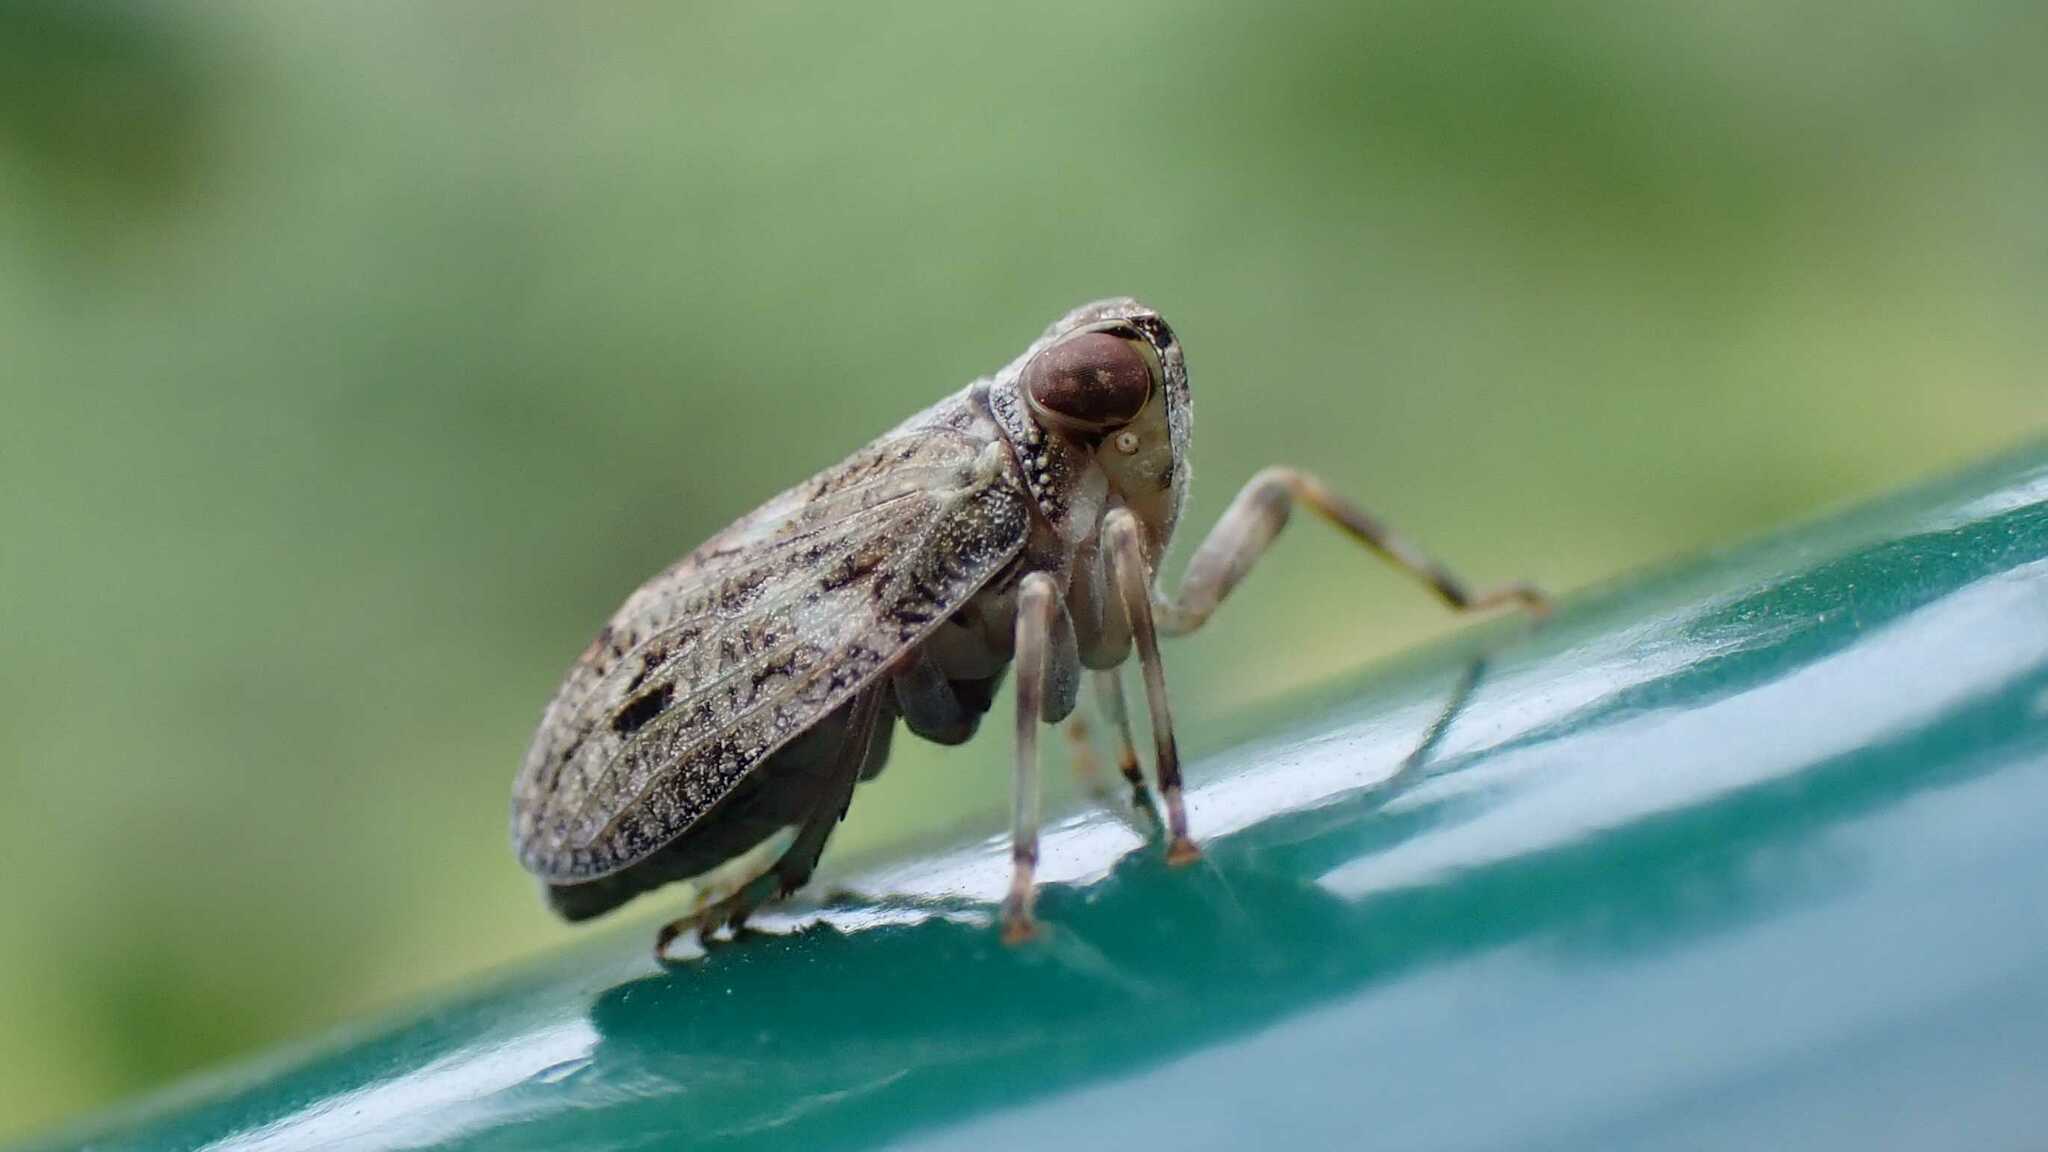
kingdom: Animalia
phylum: Arthropoda
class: Insecta
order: Hemiptera
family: Issidae
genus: Issus
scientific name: Issus coleoptratus
